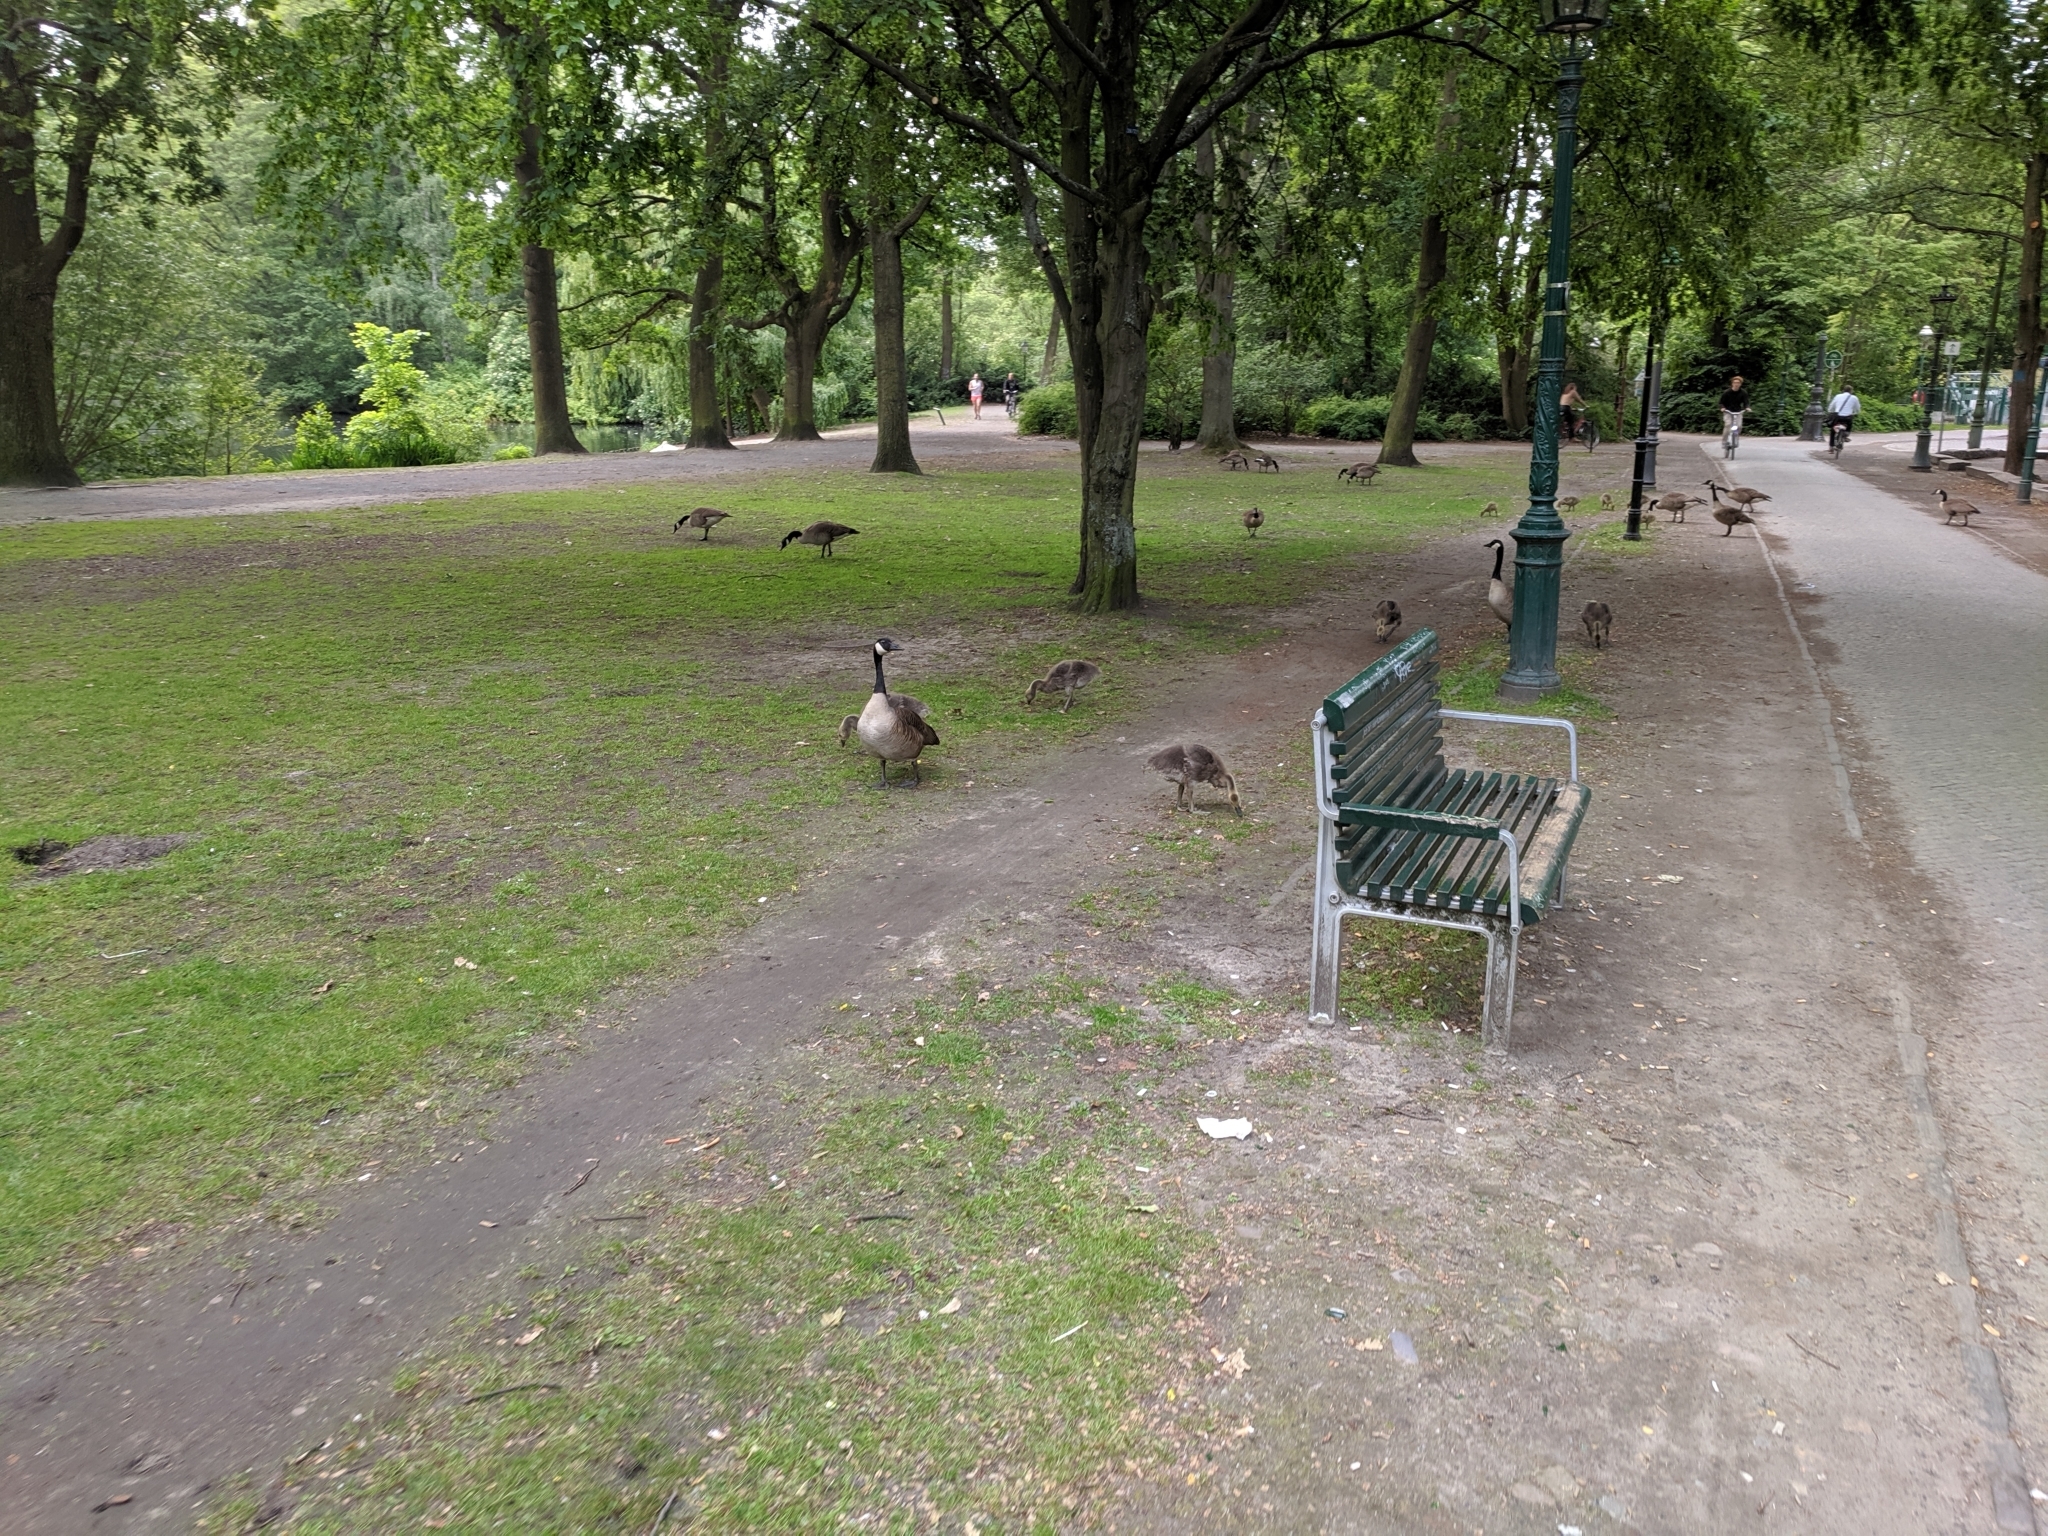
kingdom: Animalia
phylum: Chordata
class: Aves
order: Anseriformes
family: Anatidae
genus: Branta
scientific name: Branta canadensis
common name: Canada goose
